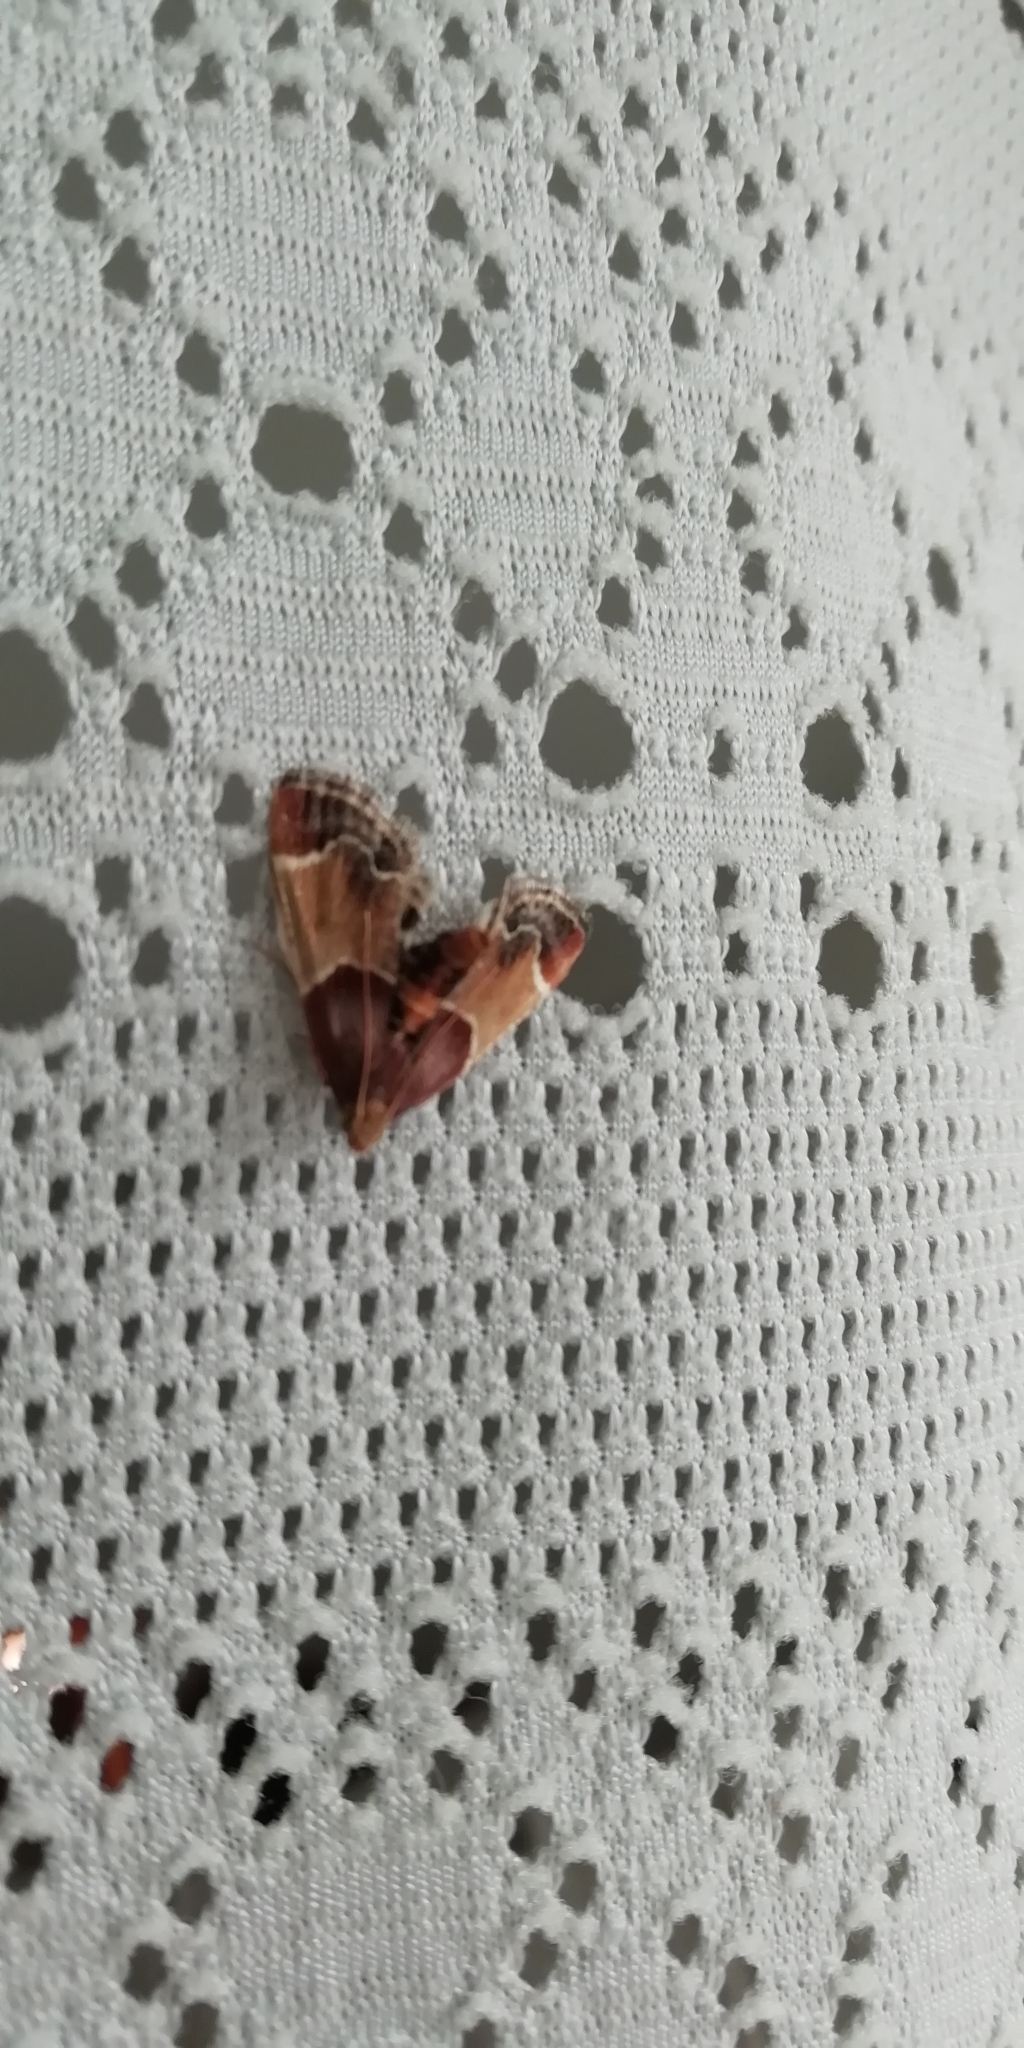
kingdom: Animalia
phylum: Arthropoda
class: Insecta
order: Lepidoptera
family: Pyralidae
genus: Pyralis
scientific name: Pyralis farinalis
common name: Meal moth
